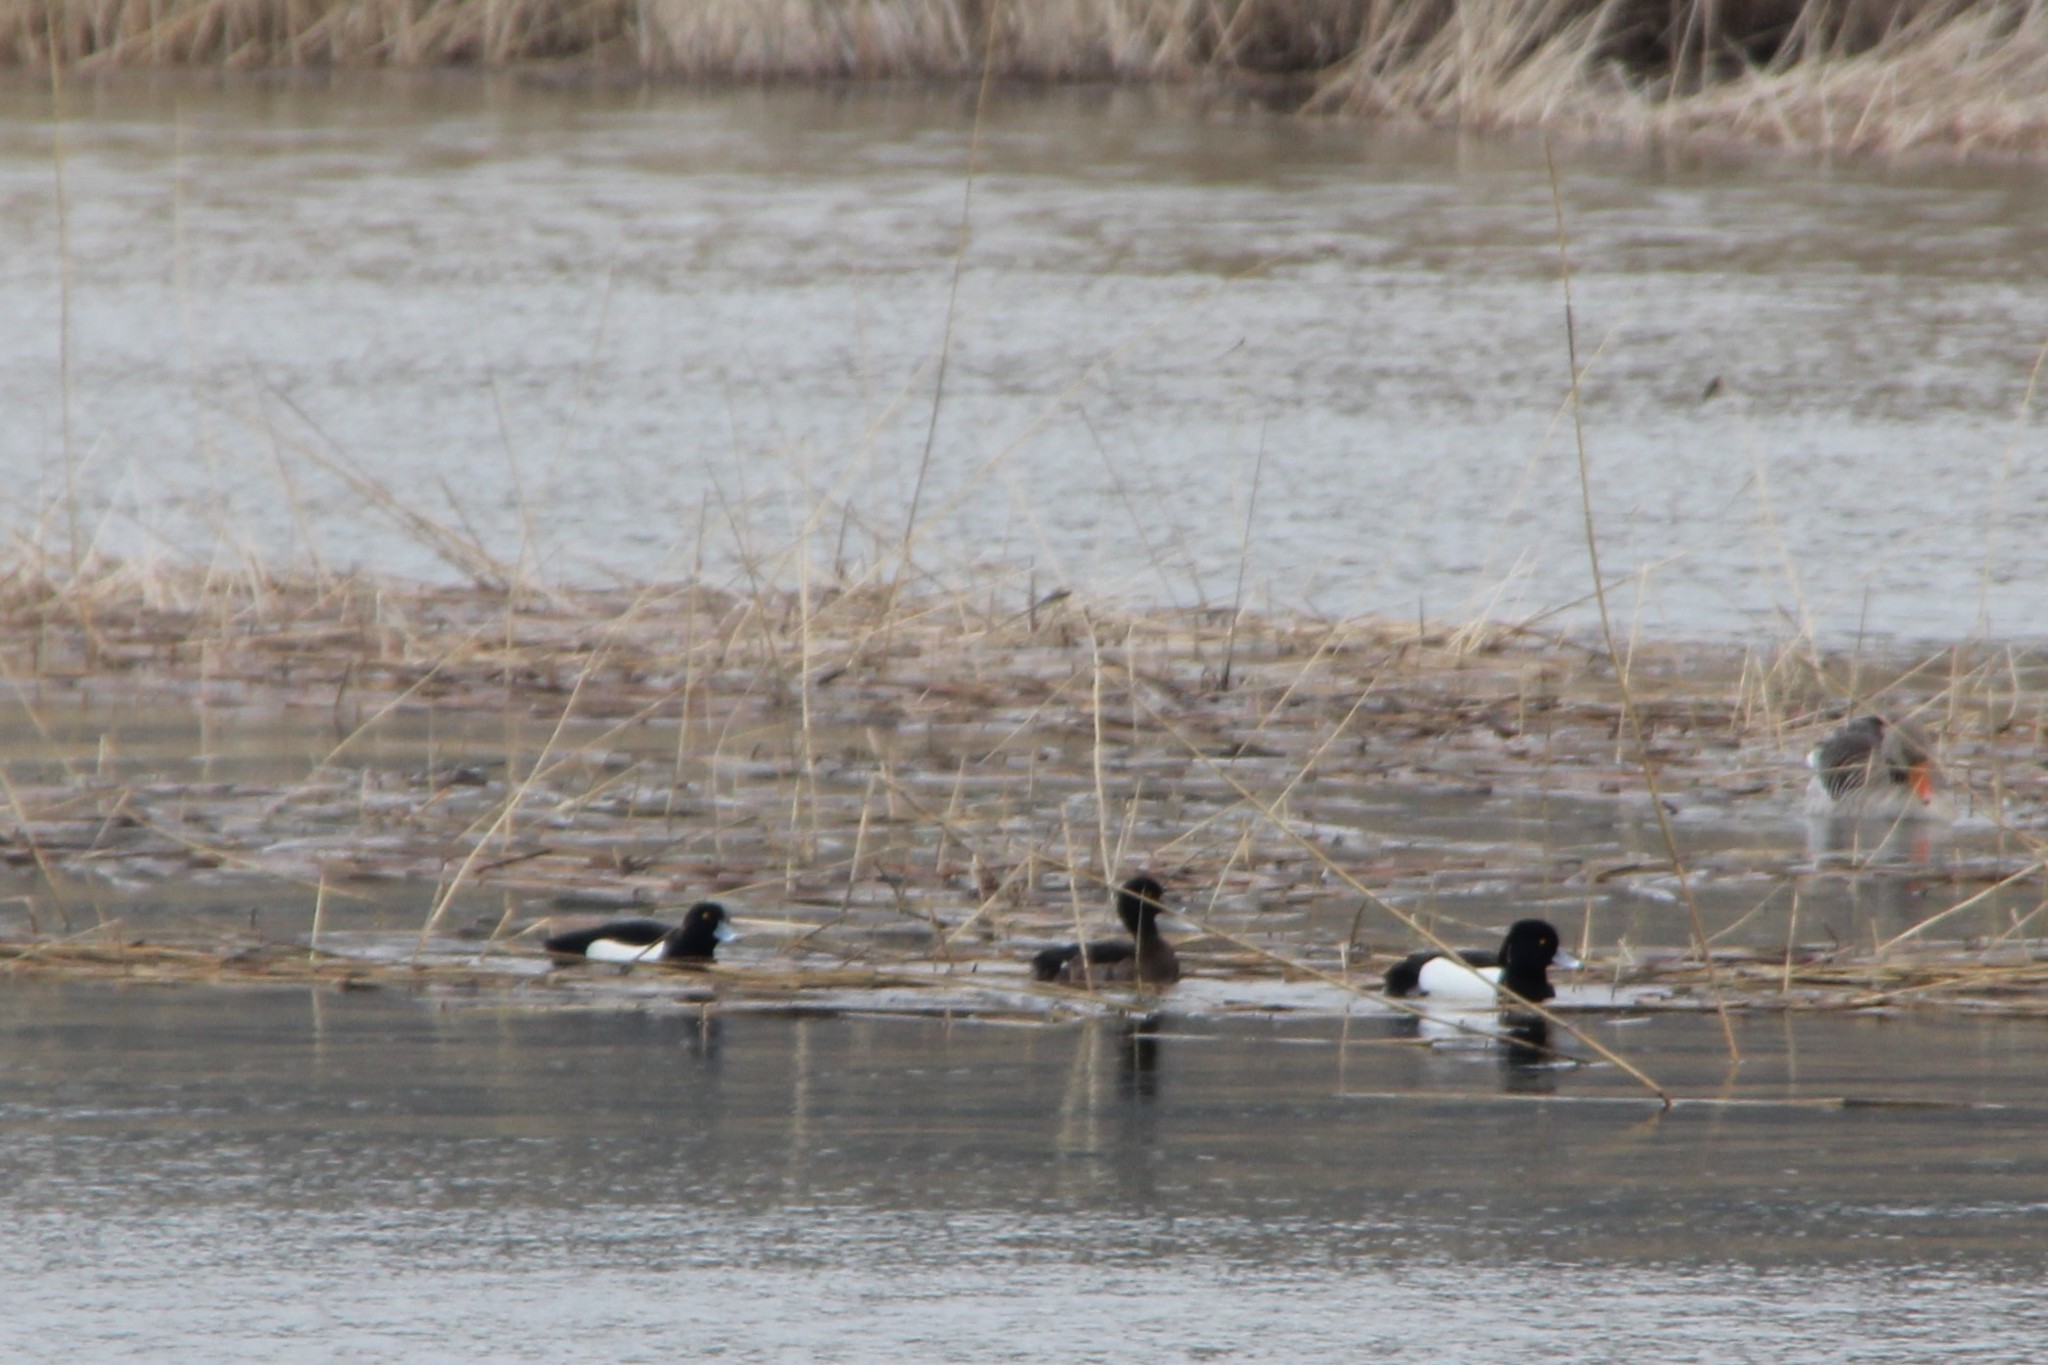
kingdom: Animalia
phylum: Chordata
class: Aves
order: Anseriformes
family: Anatidae
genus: Aythya
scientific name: Aythya fuligula
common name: Tufted duck
